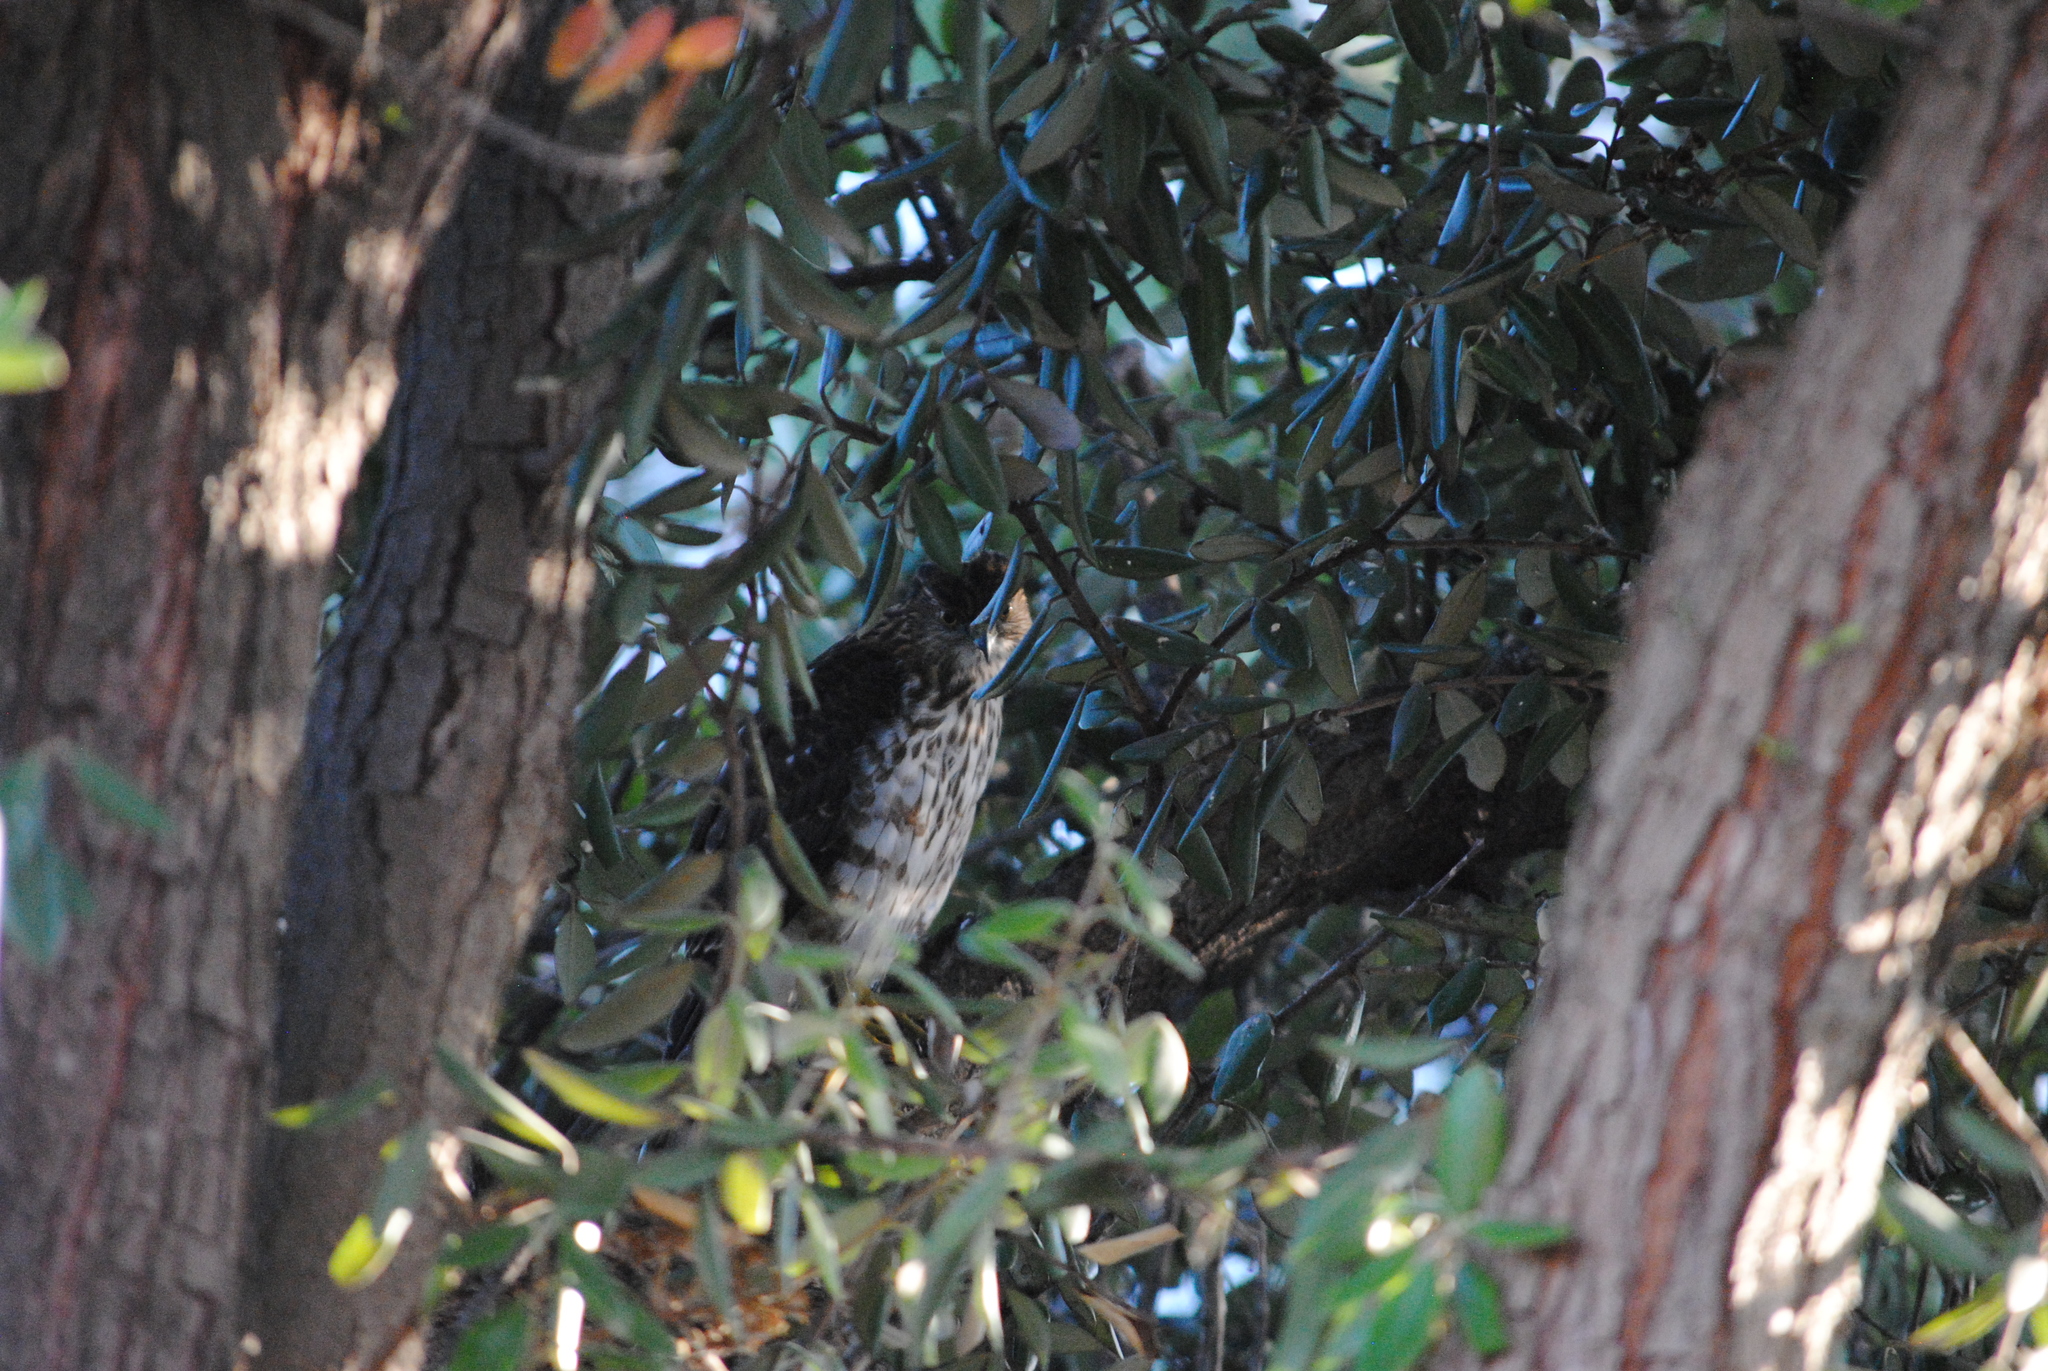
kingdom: Animalia
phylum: Chordata
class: Aves
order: Accipitriformes
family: Accipitridae
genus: Accipiter
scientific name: Accipiter cooperii
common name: Cooper's hawk
